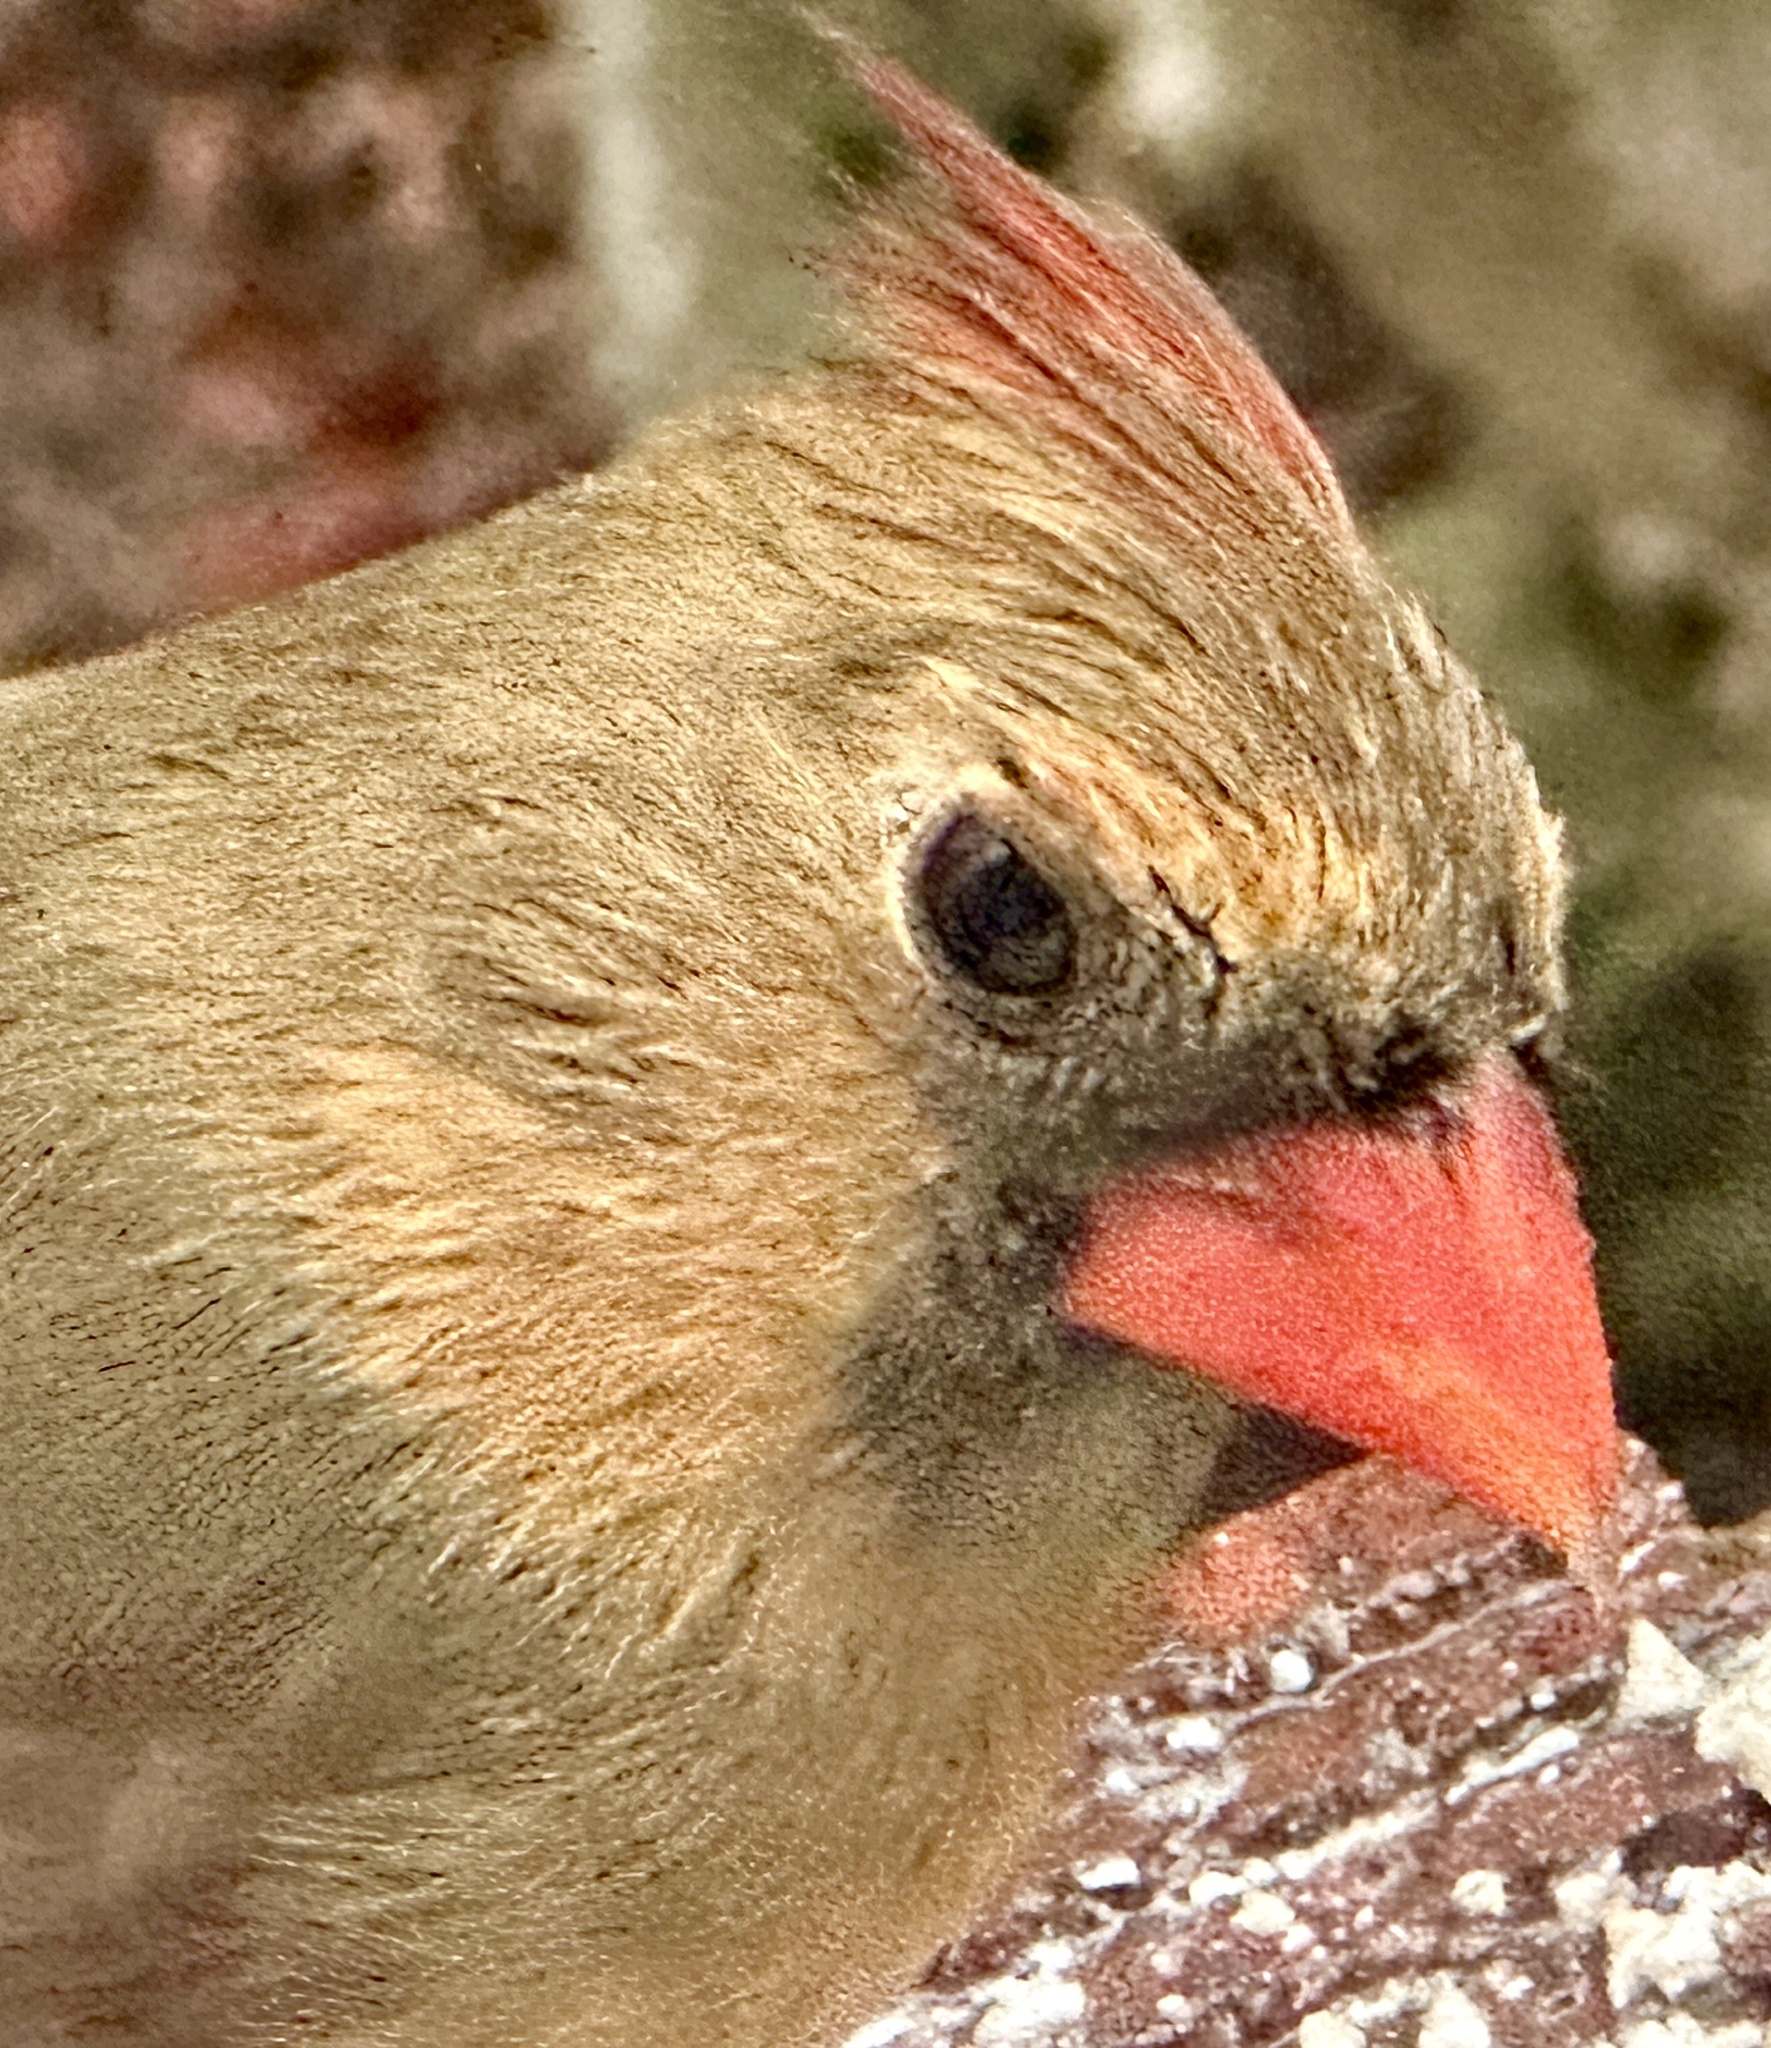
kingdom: Animalia
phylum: Chordata
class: Aves
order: Passeriformes
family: Cardinalidae
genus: Cardinalis
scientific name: Cardinalis cardinalis
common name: Northern cardinal
